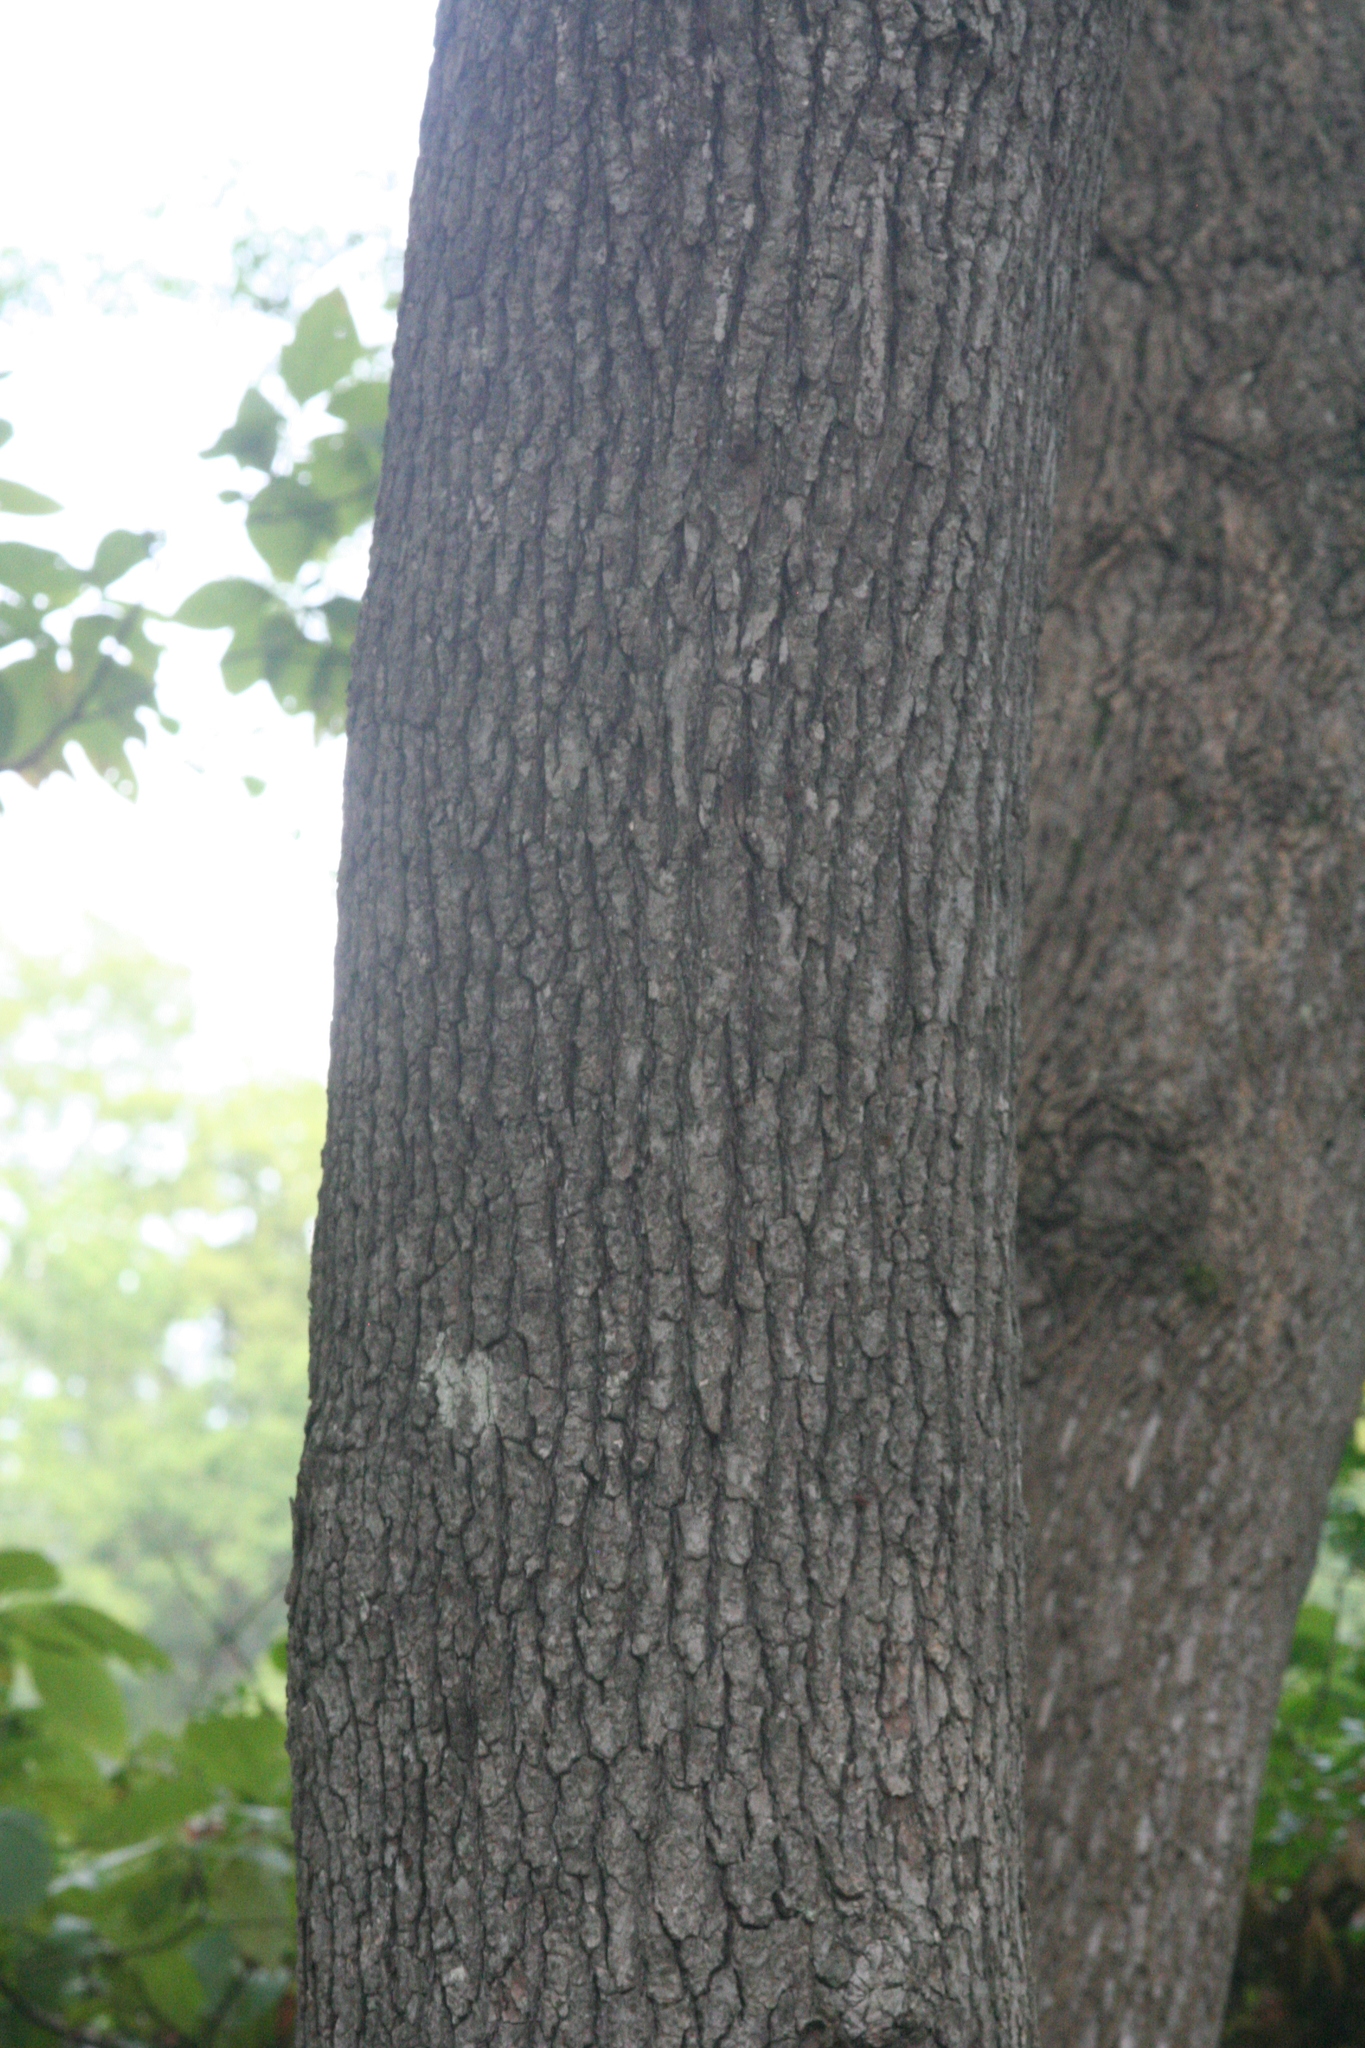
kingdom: Plantae
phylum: Tracheophyta
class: Magnoliopsida
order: Saxifragales
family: Altingiaceae
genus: Liquidambar
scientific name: Liquidambar styraciflua
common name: Sweet gum
